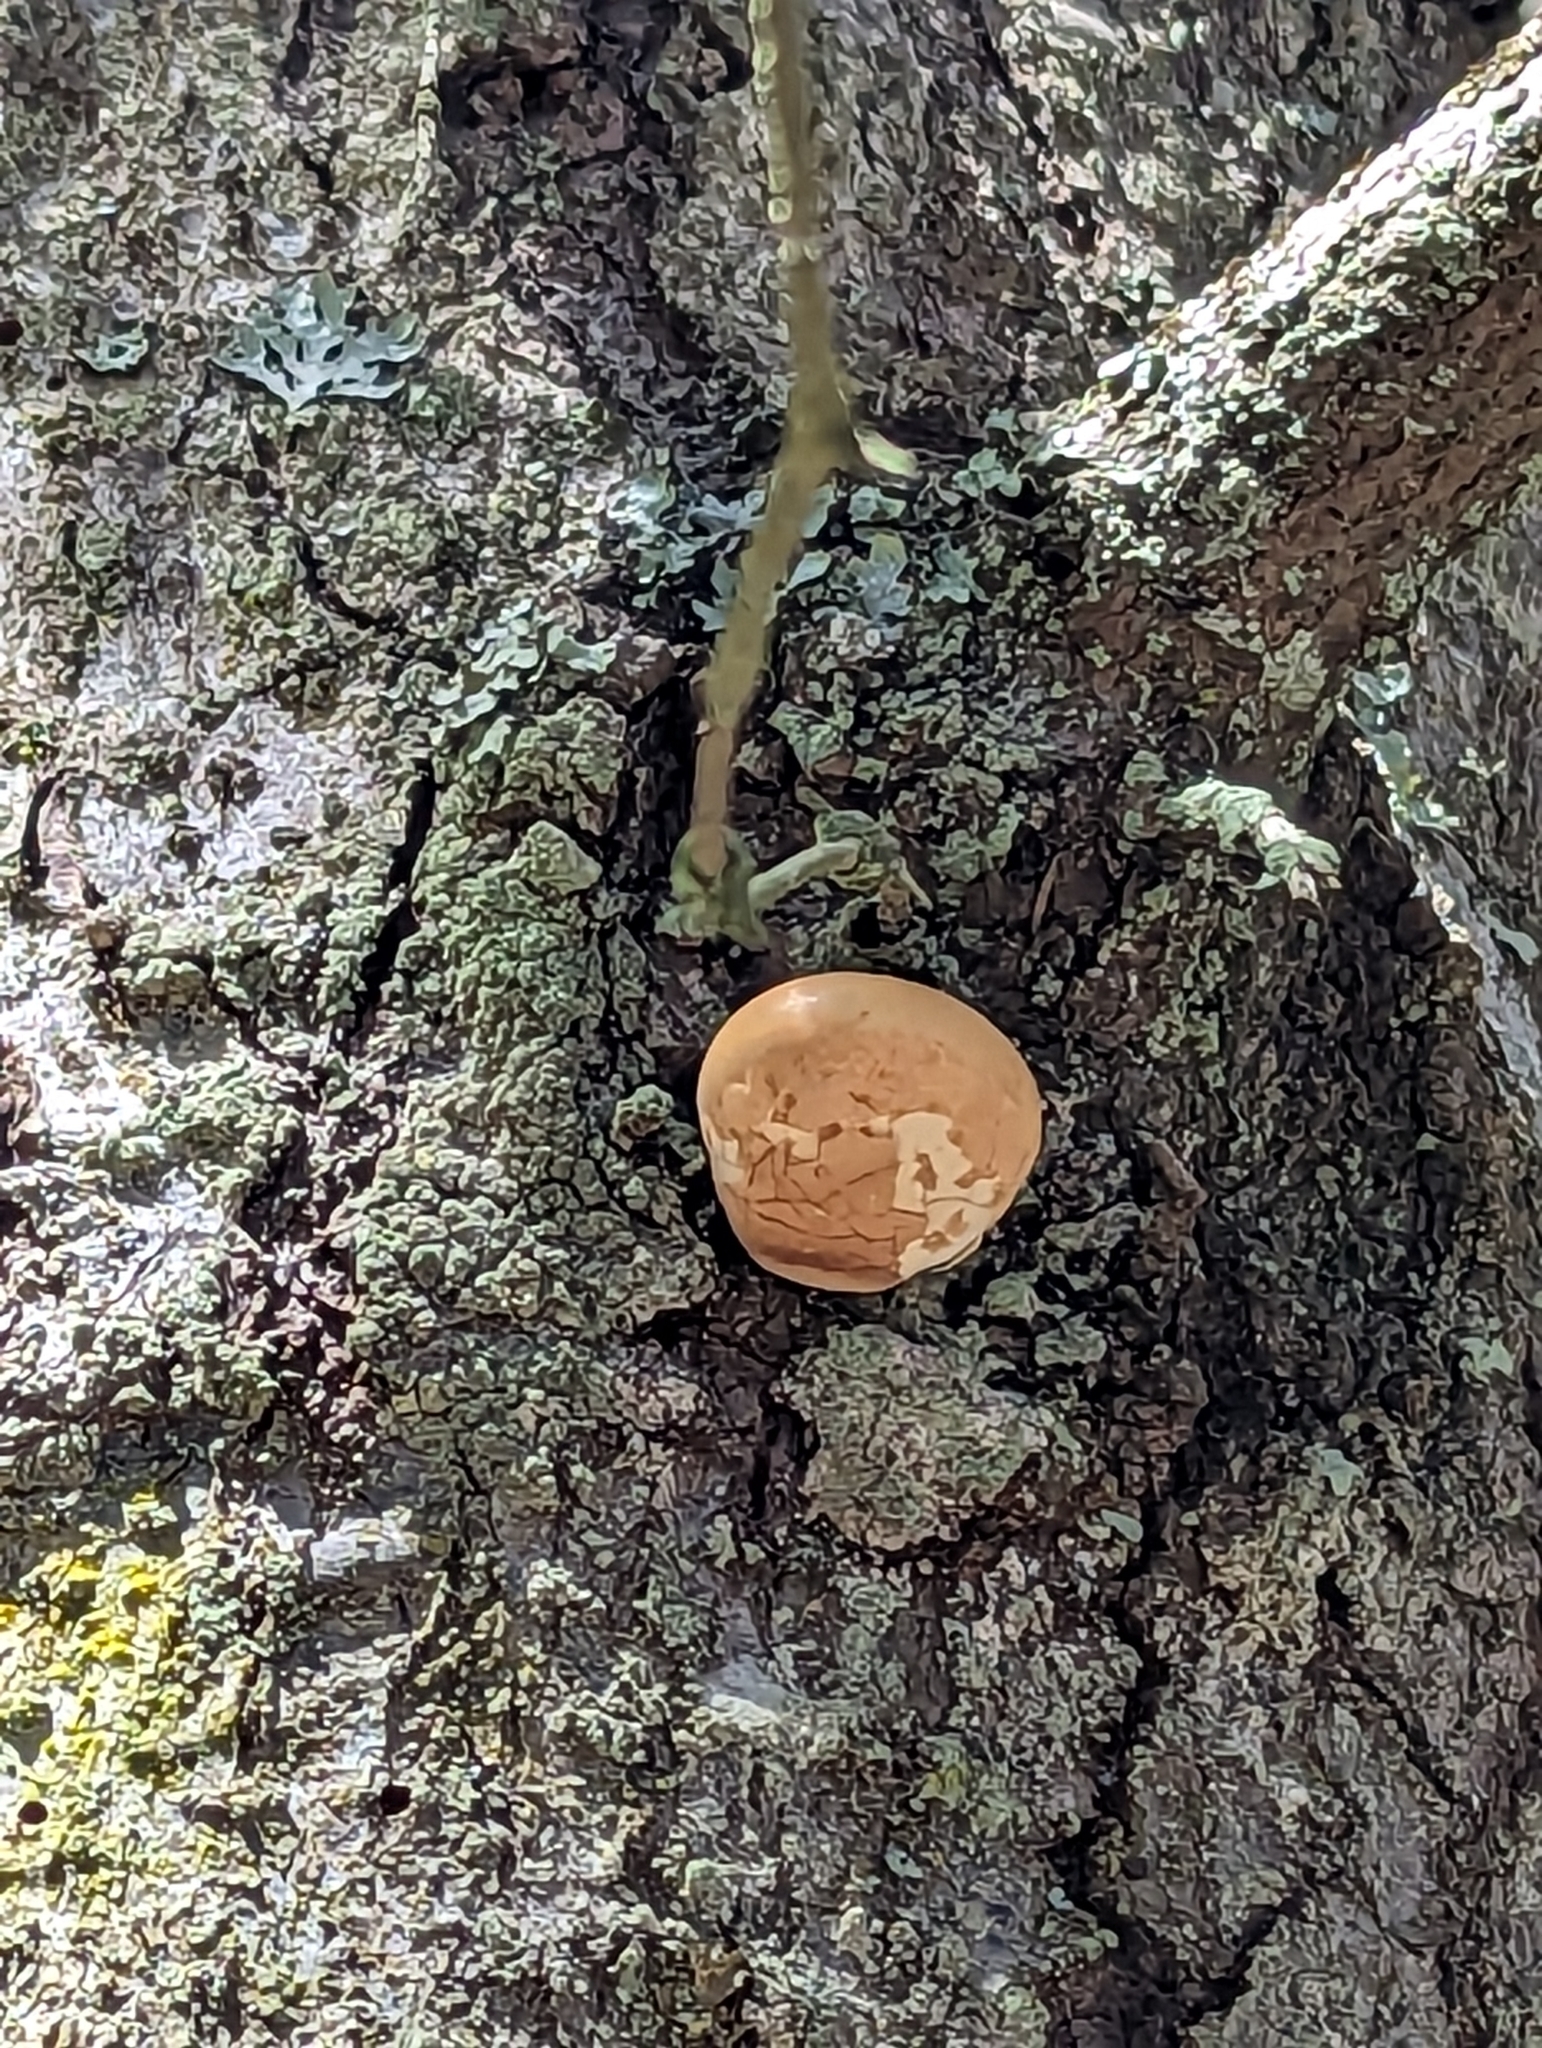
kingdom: Fungi
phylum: Basidiomycota
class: Agaricomycetes
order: Polyporales
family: Polyporaceae
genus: Cryptoporus
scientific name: Cryptoporus volvatus
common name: Veiled polypore
